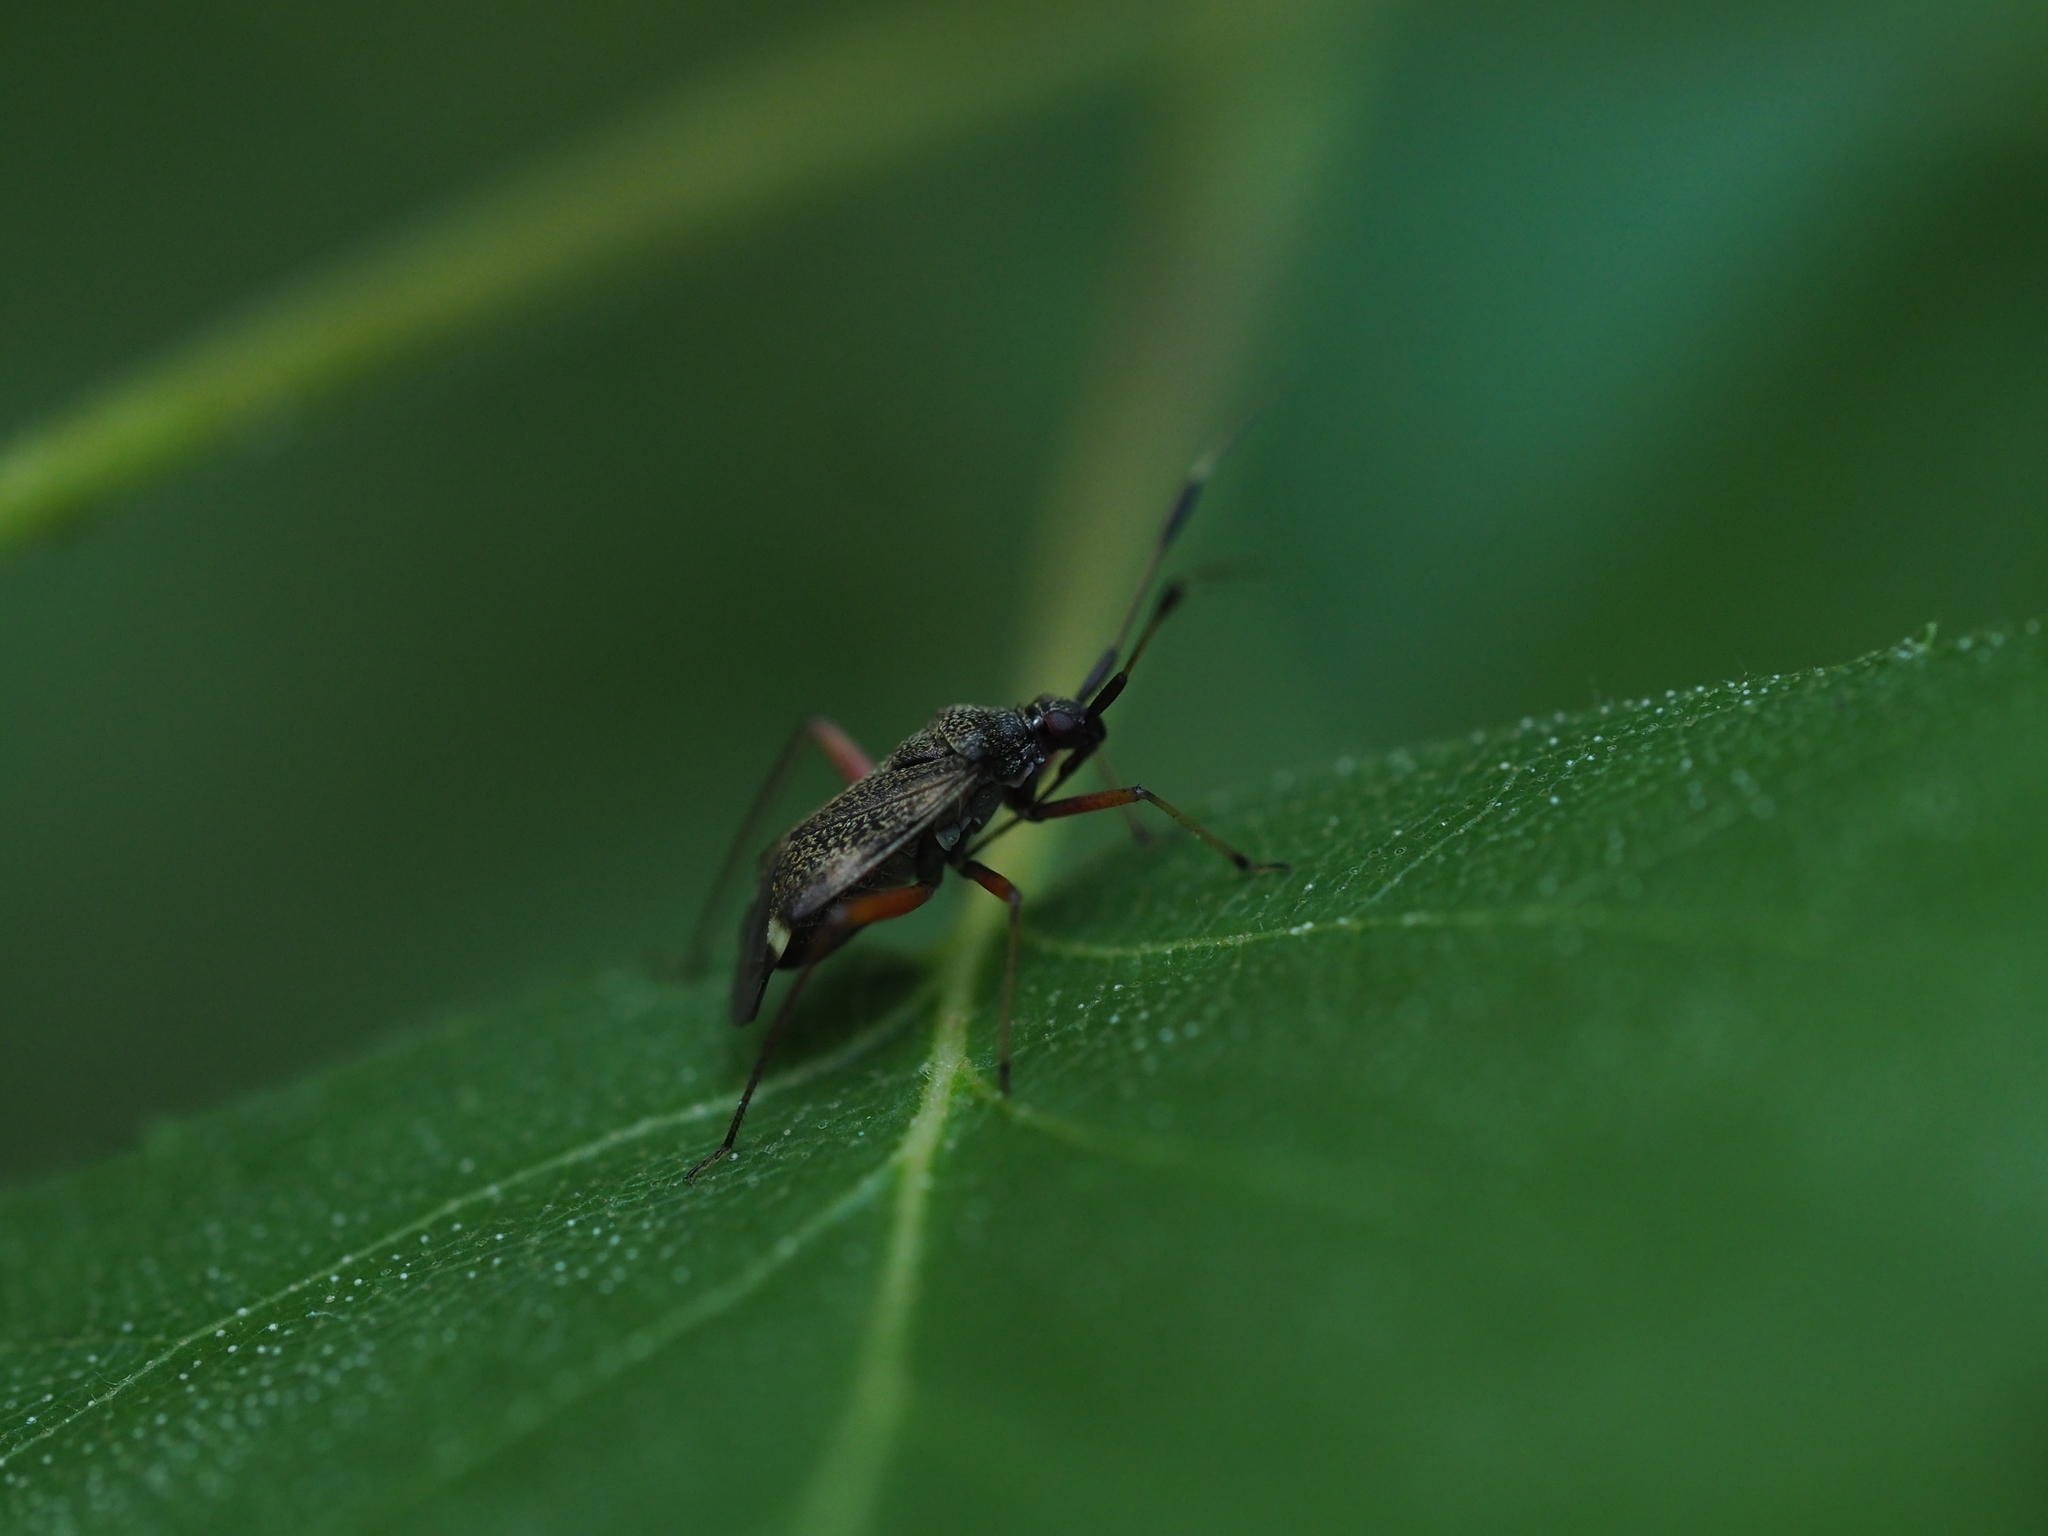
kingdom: Animalia
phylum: Arthropoda
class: Insecta
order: Hemiptera
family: Miridae
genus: Closterotomus
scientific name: Closterotomus biclavatus
